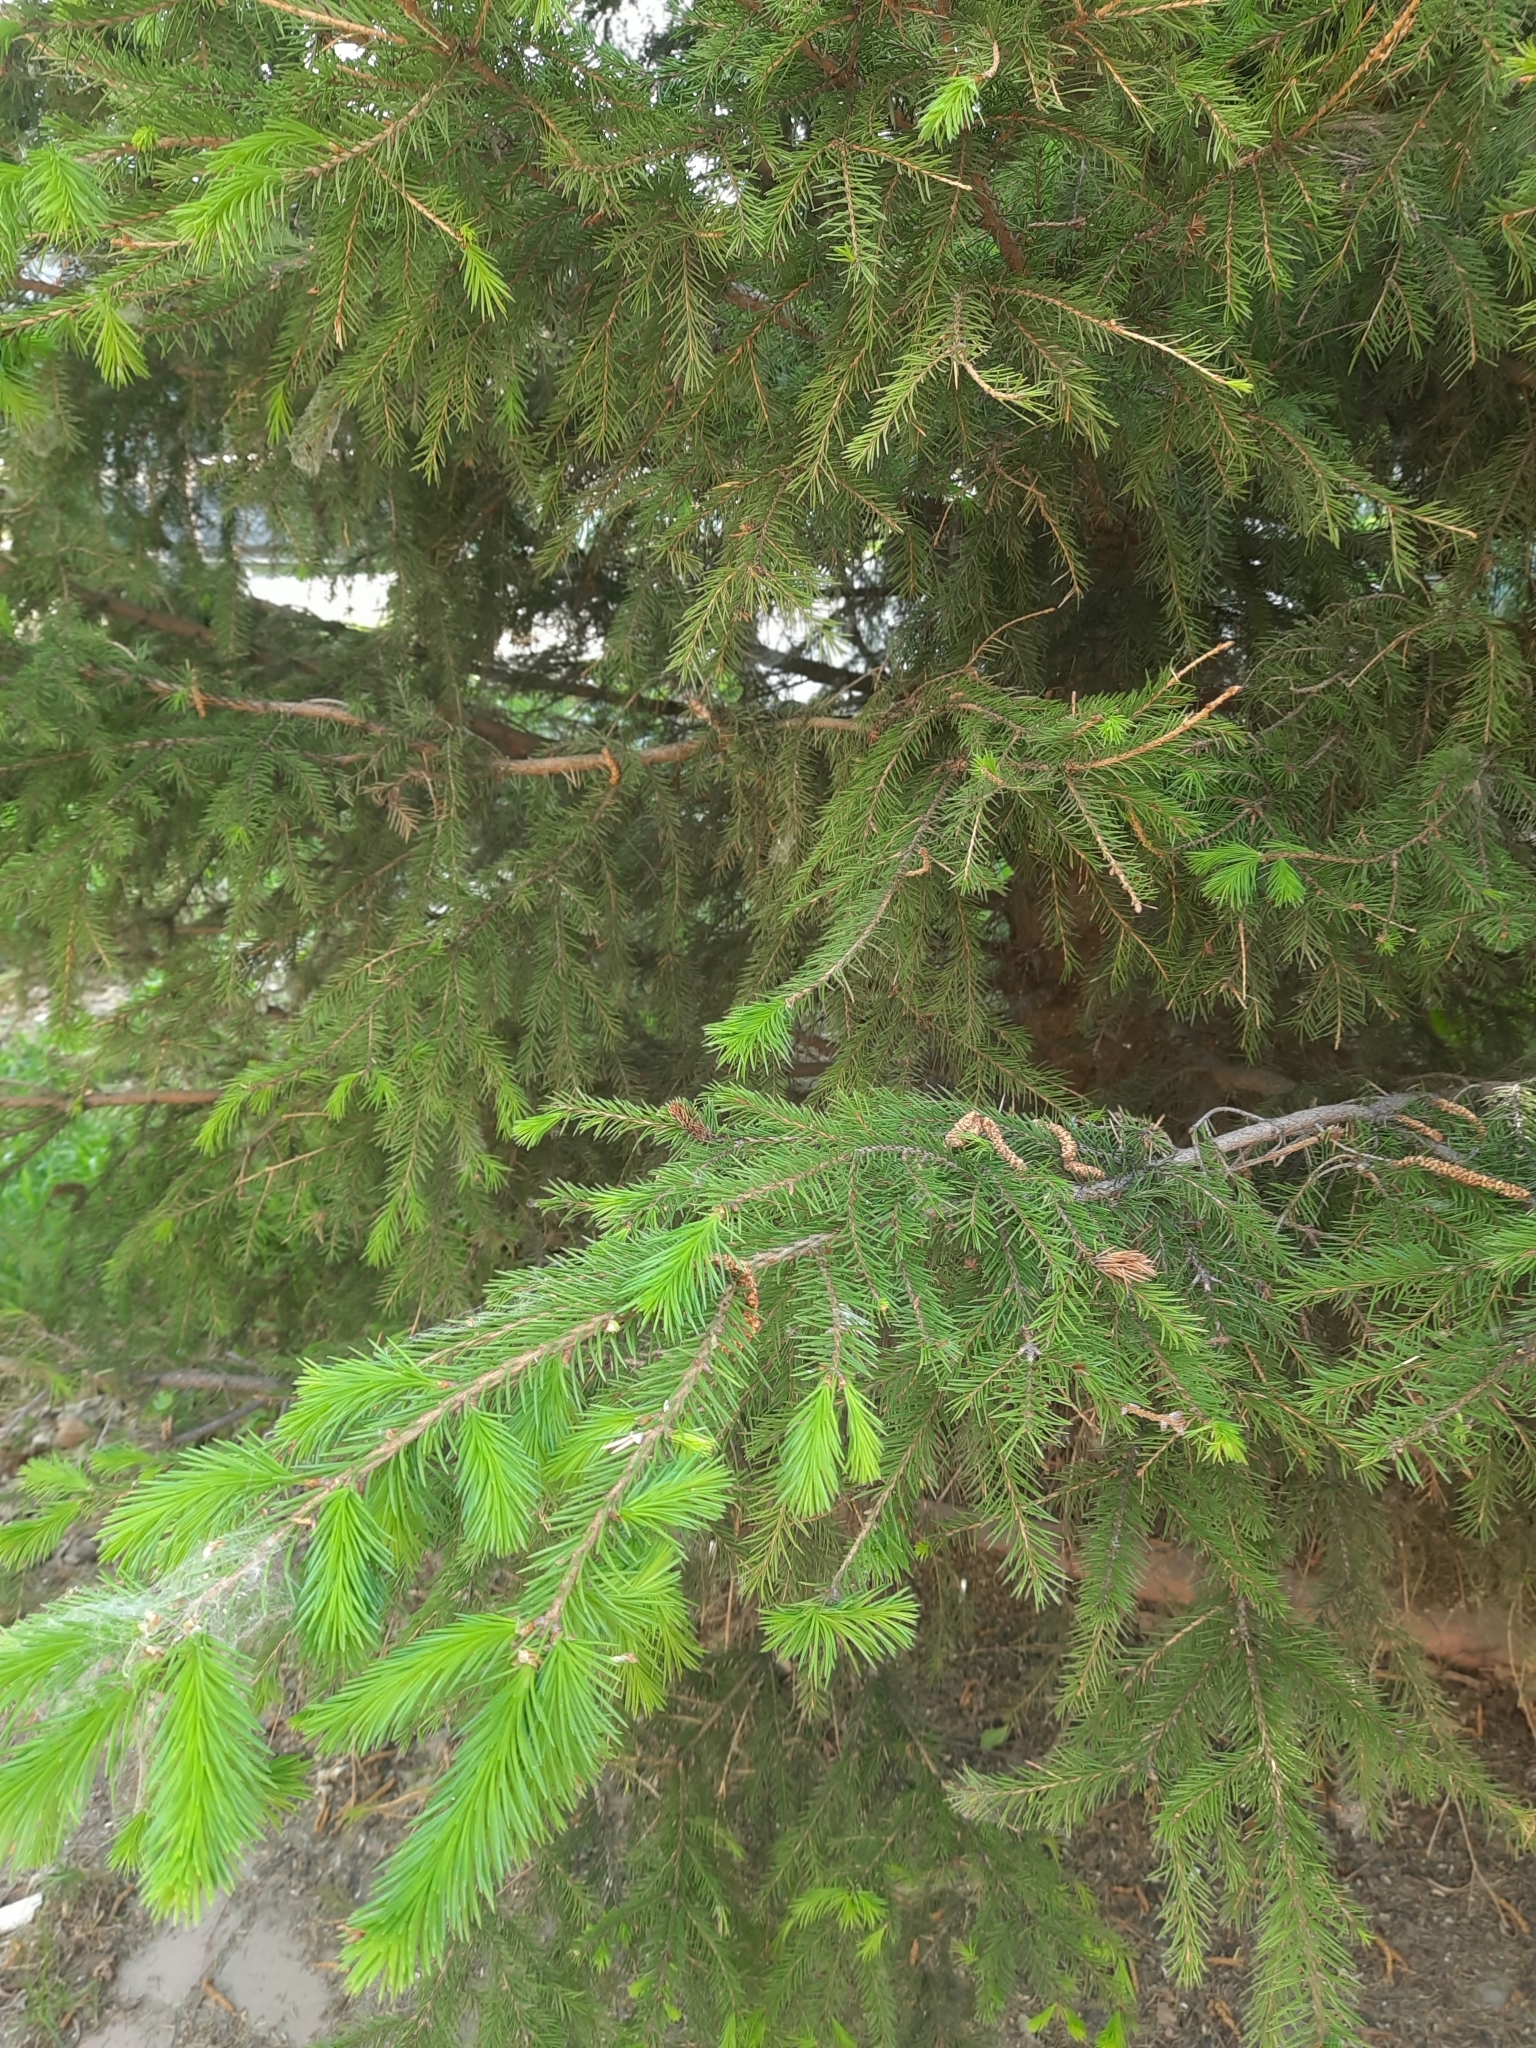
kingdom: Plantae
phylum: Tracheophyta
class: Pinopsida
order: Pinales
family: Pinaceae
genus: Picea
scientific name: Picea obovata
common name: Siberian spruce
